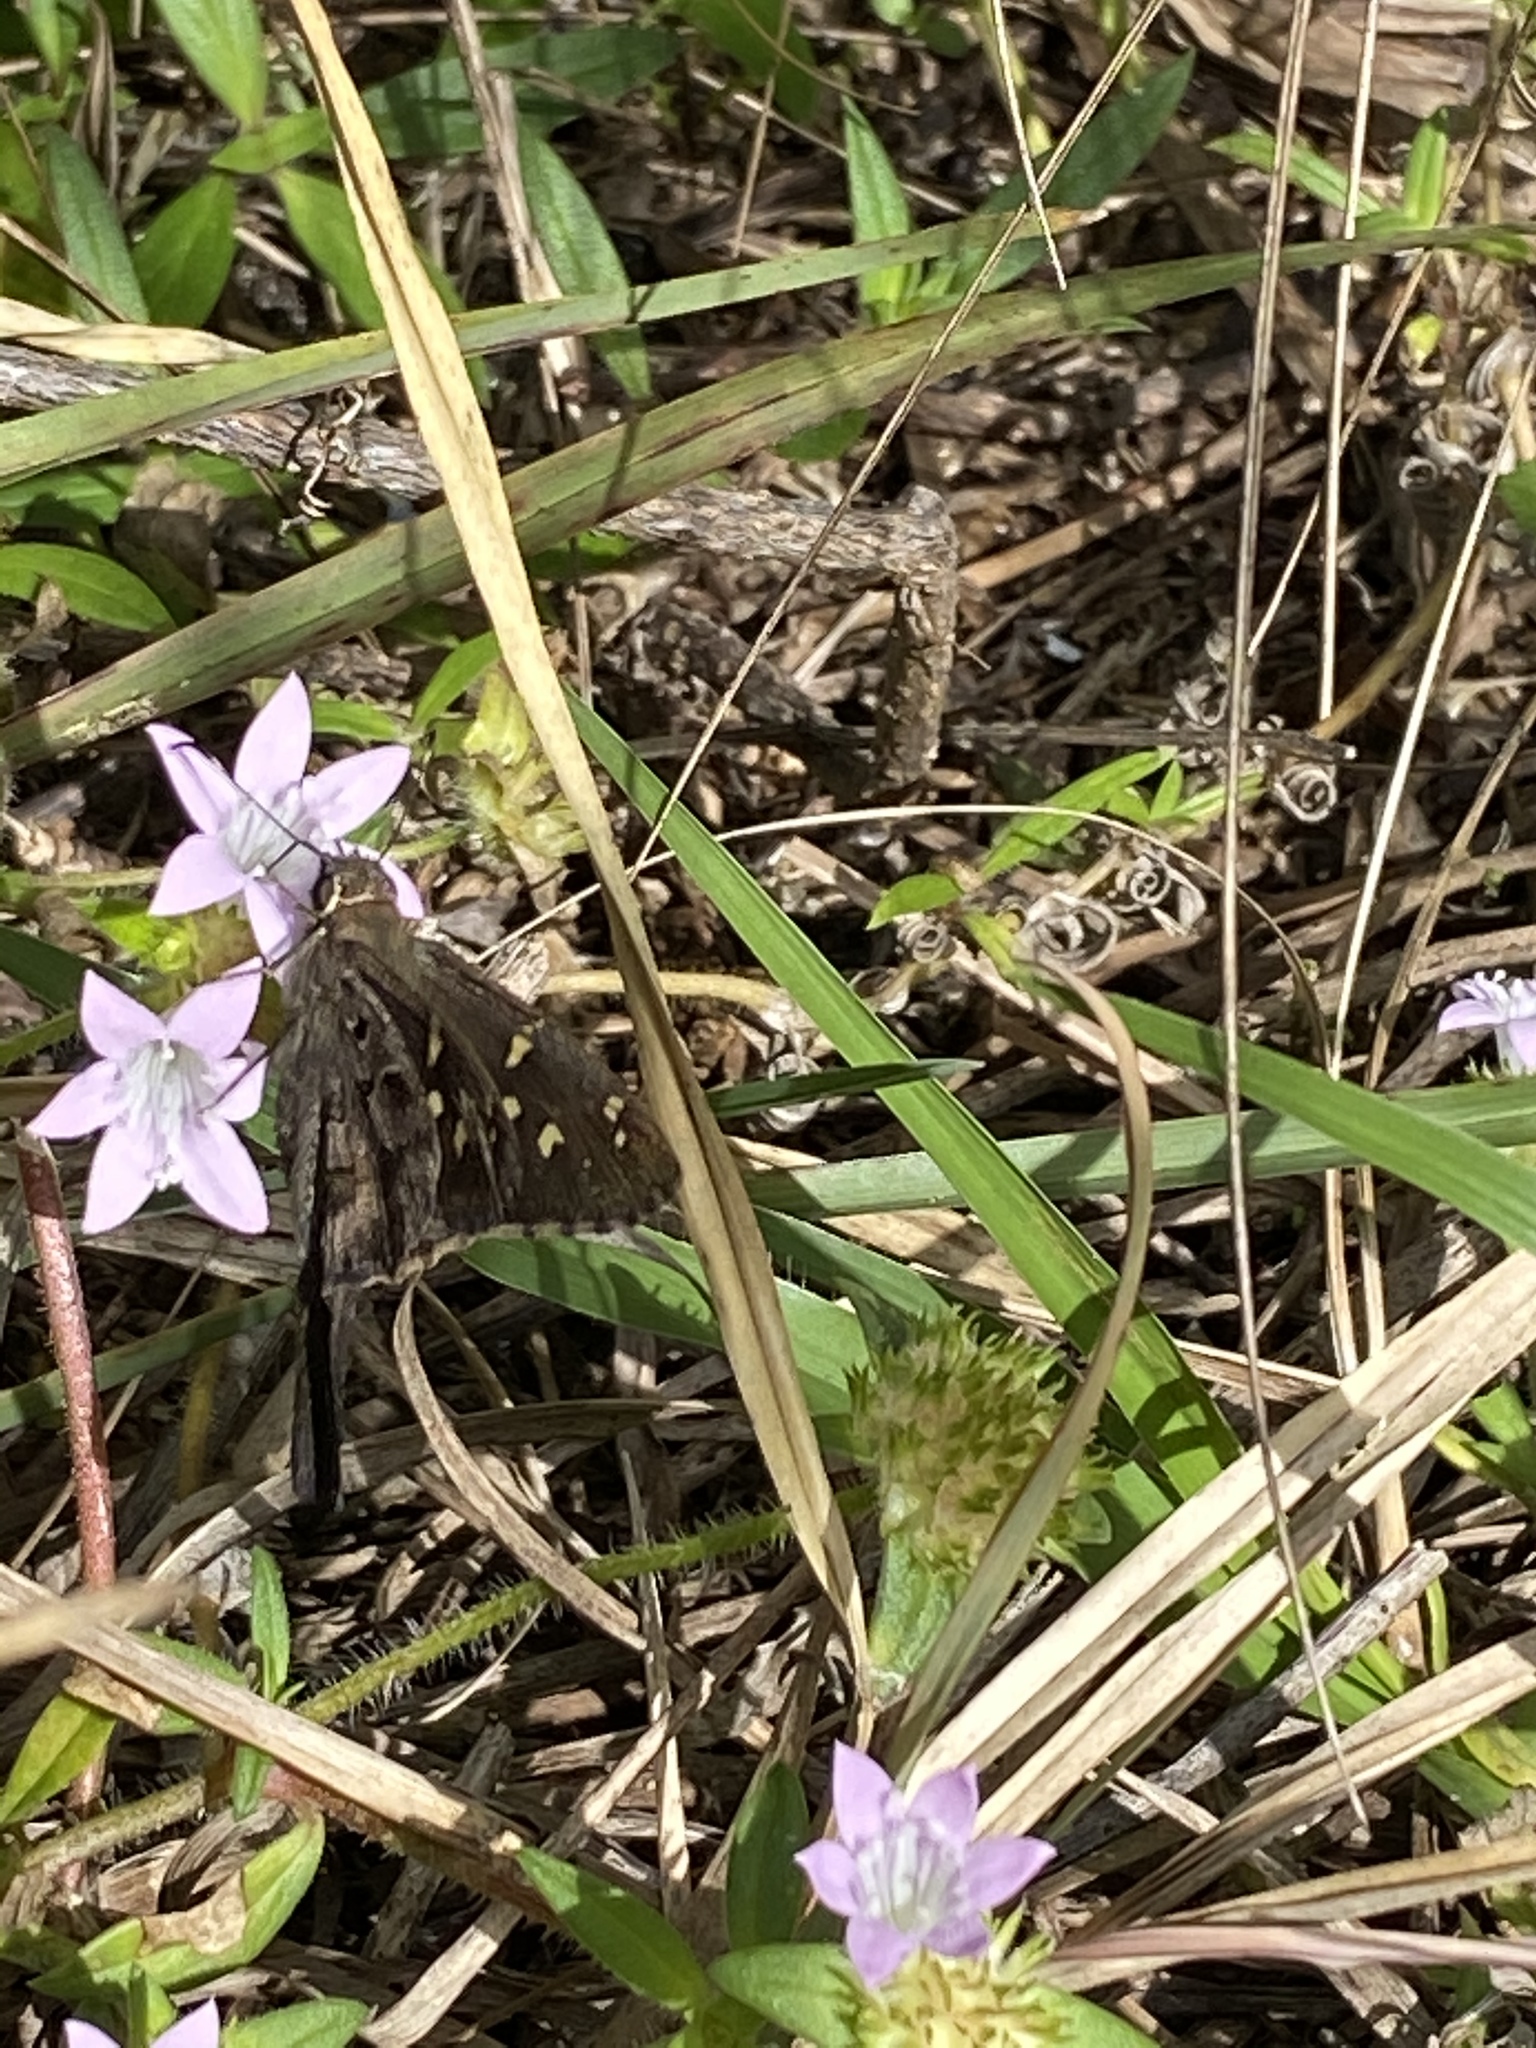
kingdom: Animalia
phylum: Arthropoda
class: Insecta
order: Lepidoptera
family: Hesperiidae
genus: Thorybes
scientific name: Thorybes
